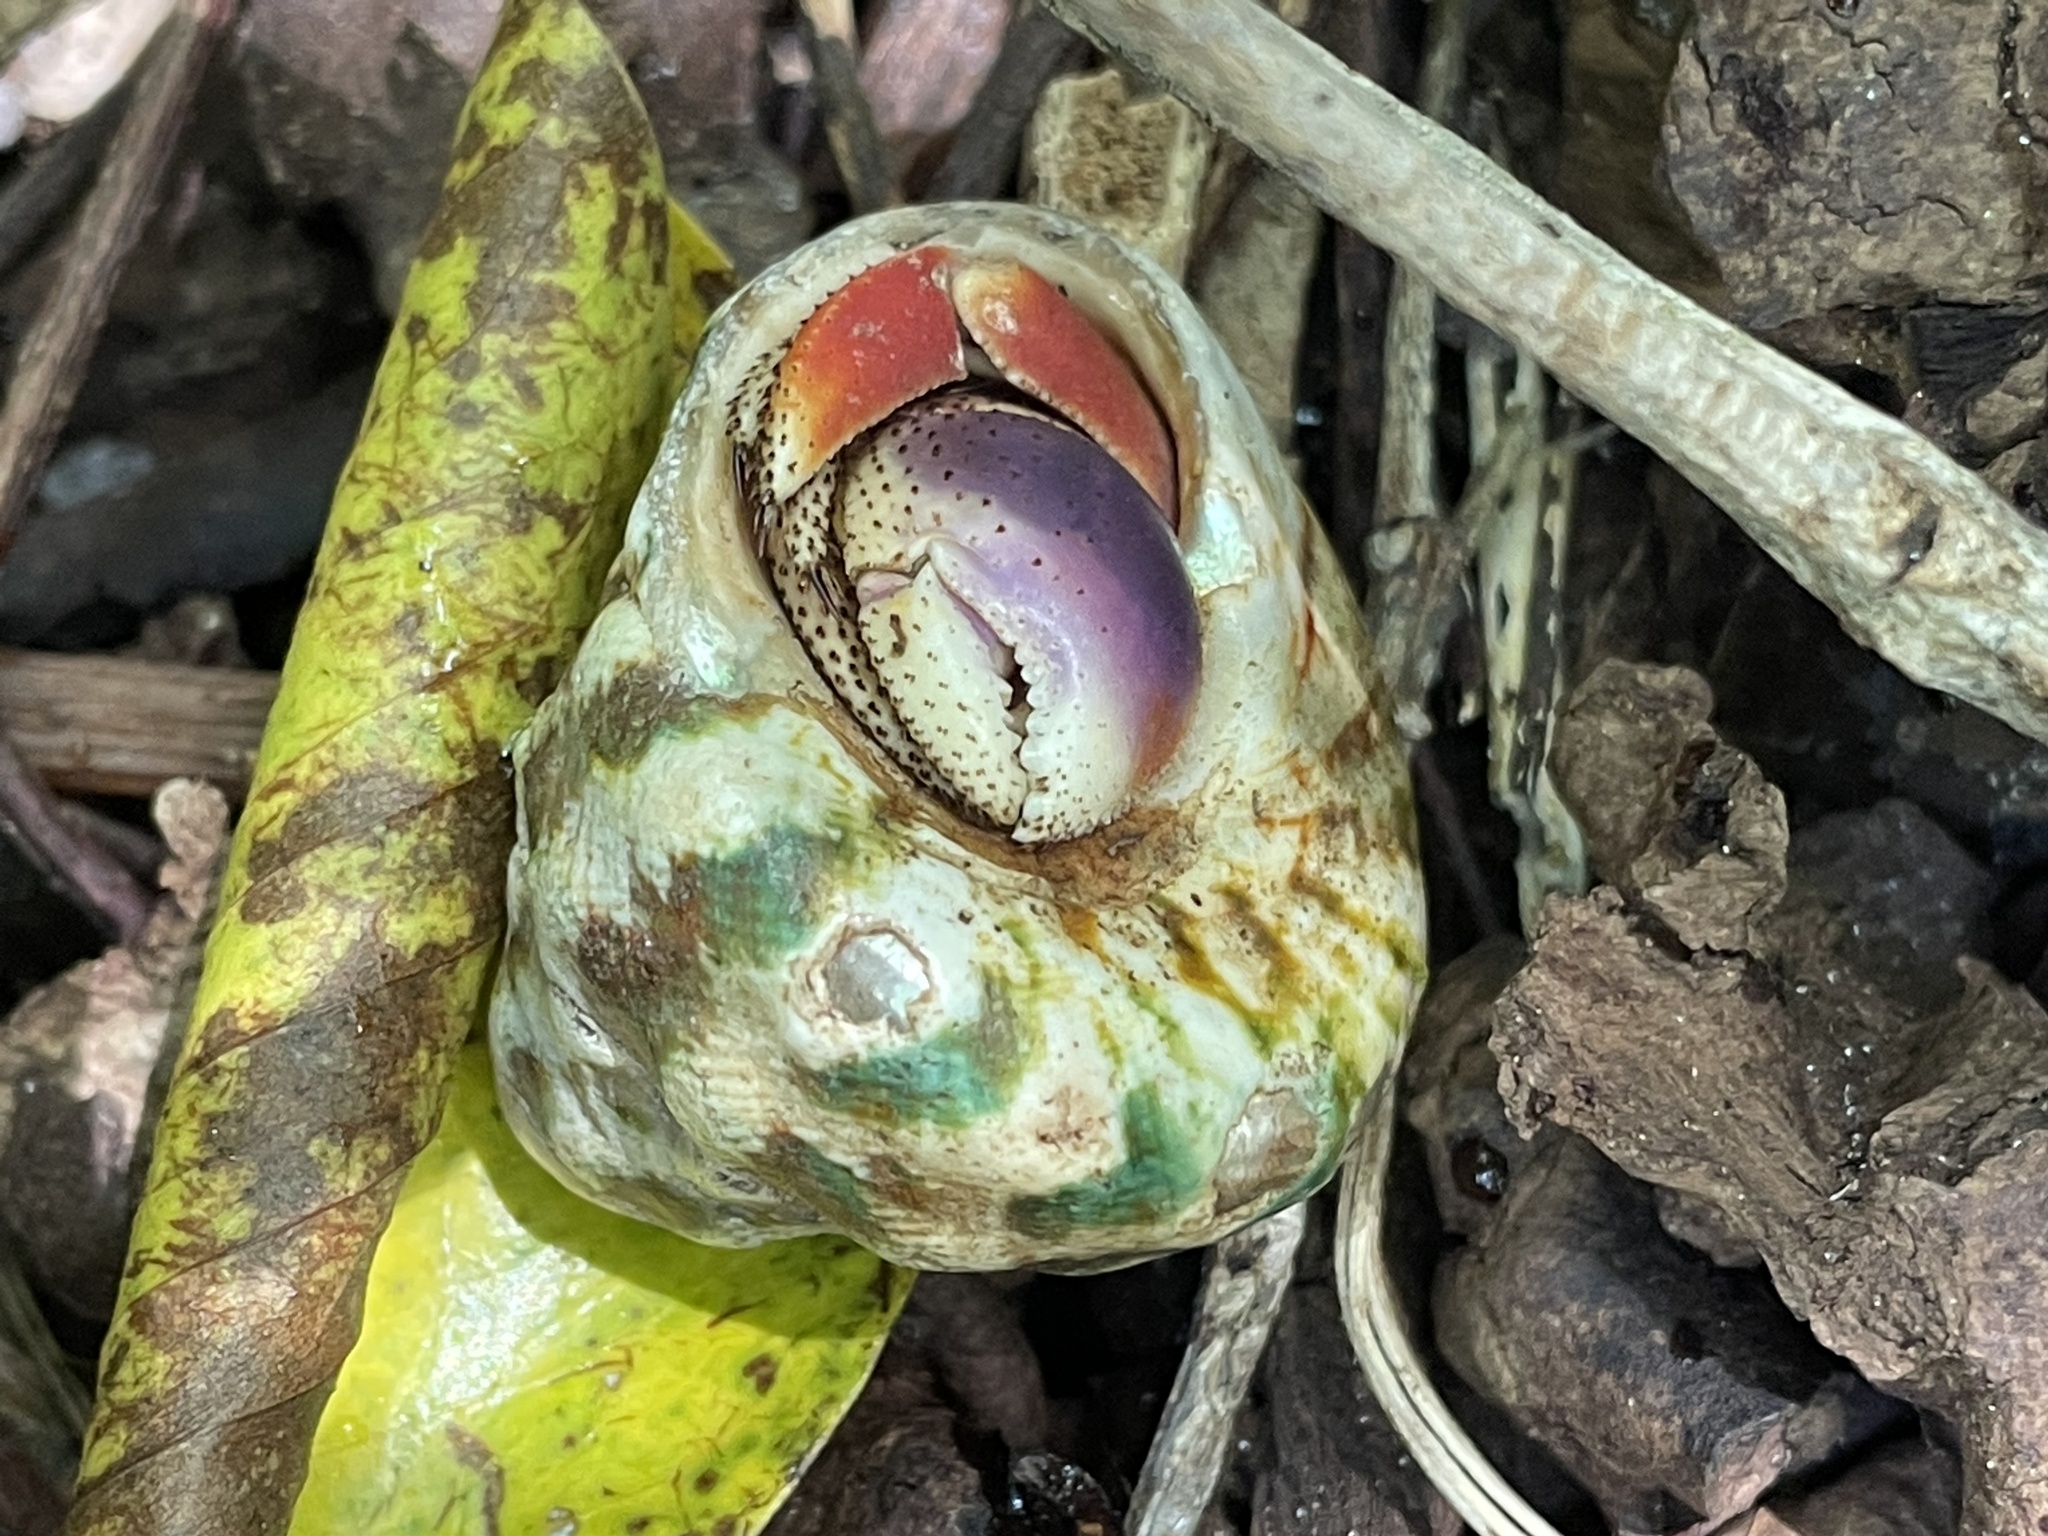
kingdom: Animalia
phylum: Arthropoda
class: Malacostraca
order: Decapoda
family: Coenobitidae
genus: Coenobita
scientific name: Coenobita clypeatus
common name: Caribbean hermit crab
